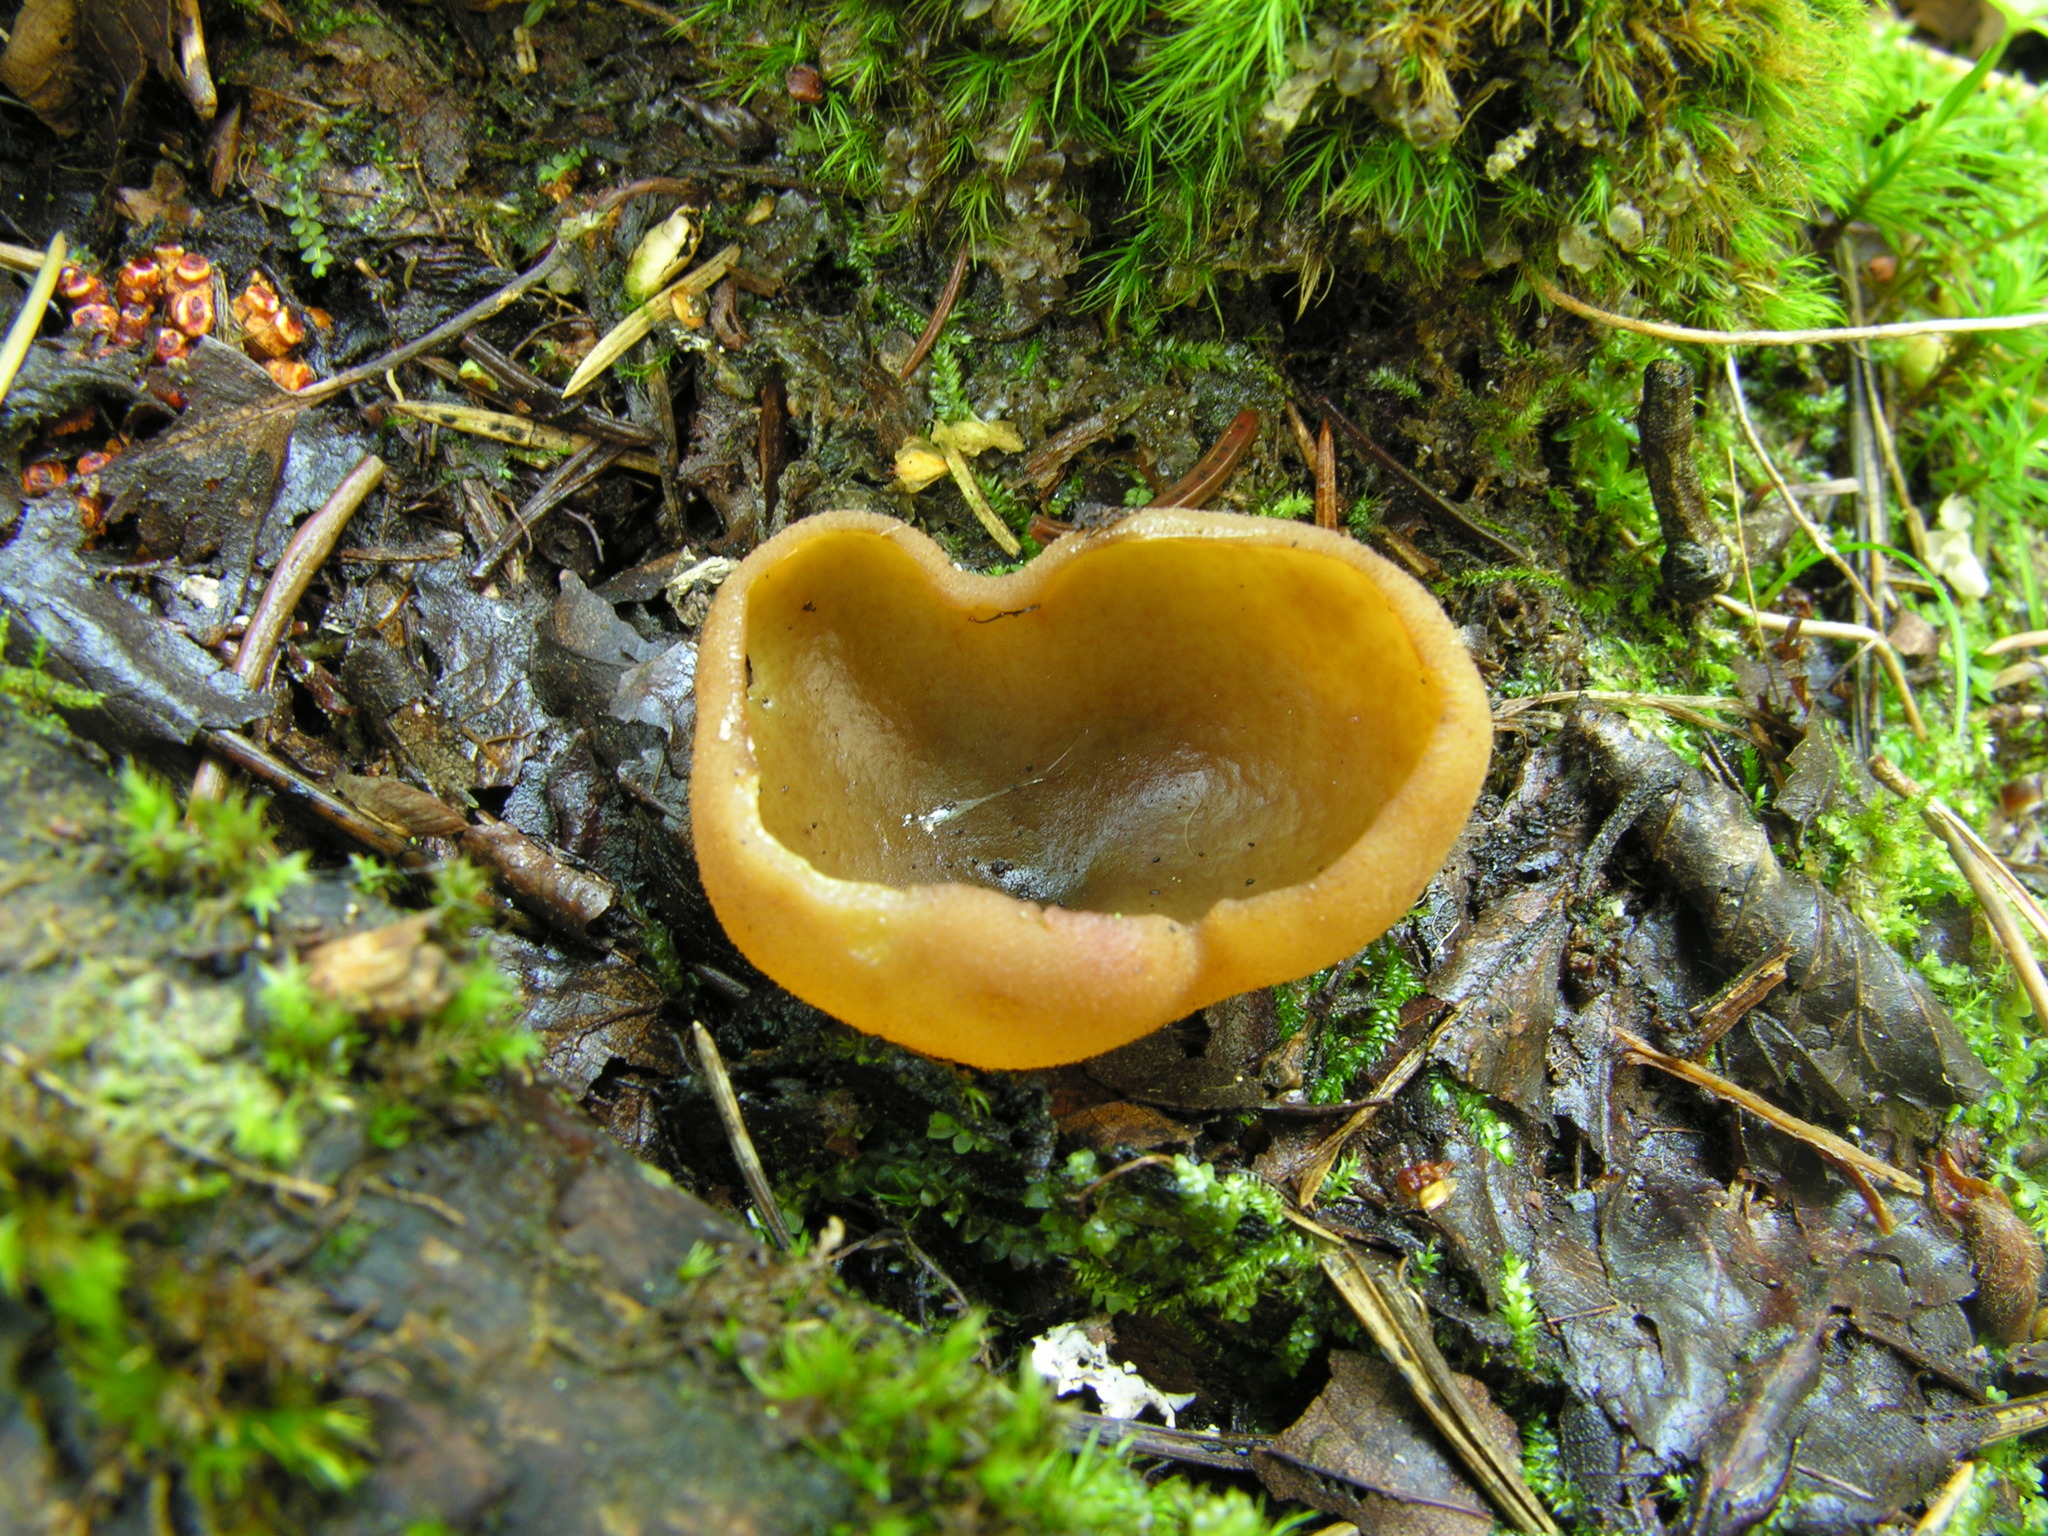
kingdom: Fungi
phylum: Ascomycota
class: Pezizomycetes
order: Pezizales
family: Pezizaceae
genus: Legaliana
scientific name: Legaliana limnaea
